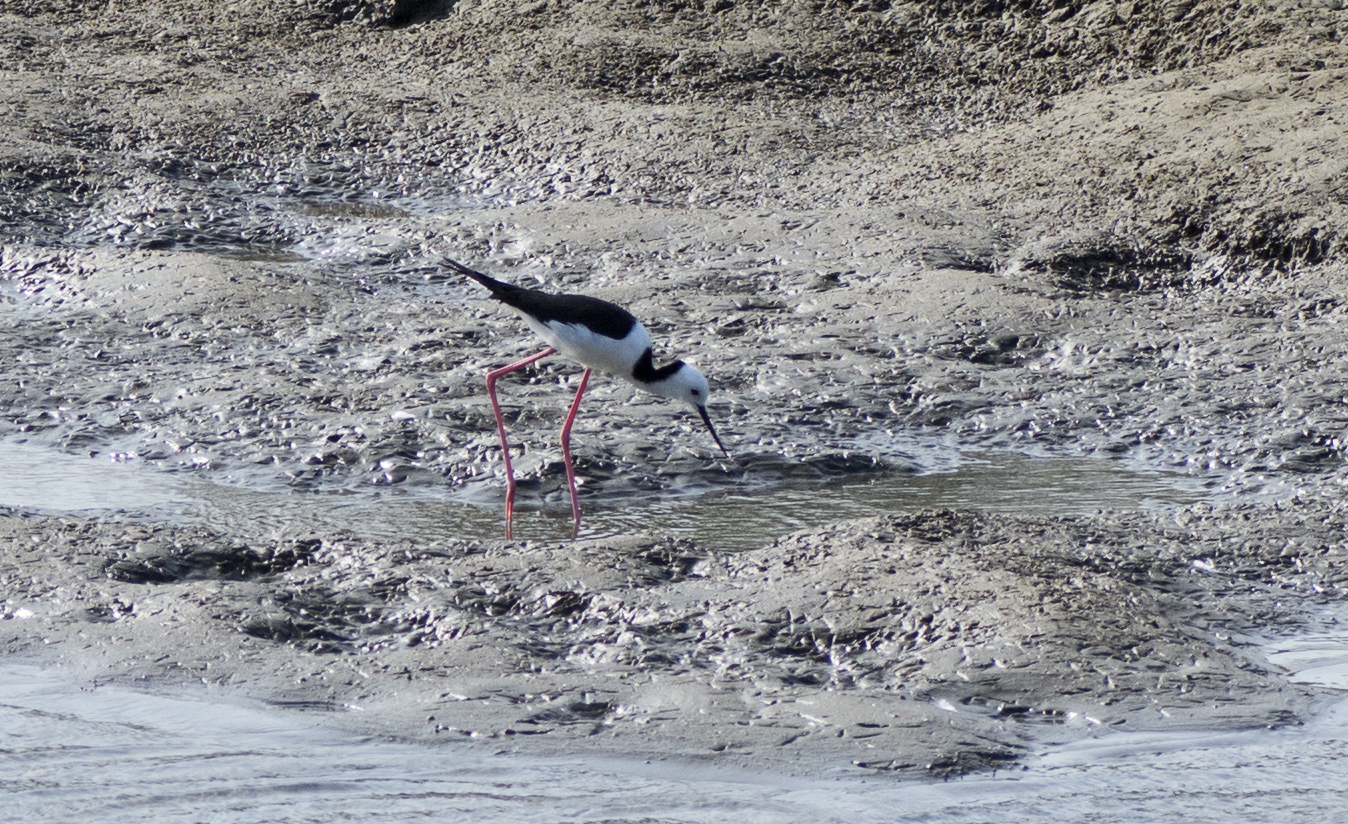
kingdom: Animalia
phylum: Chordata
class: Aves
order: Charadriiformes
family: Recurvirostridae
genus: Himantopus
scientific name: Himantopus leucocephalus
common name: White-headed stilt
